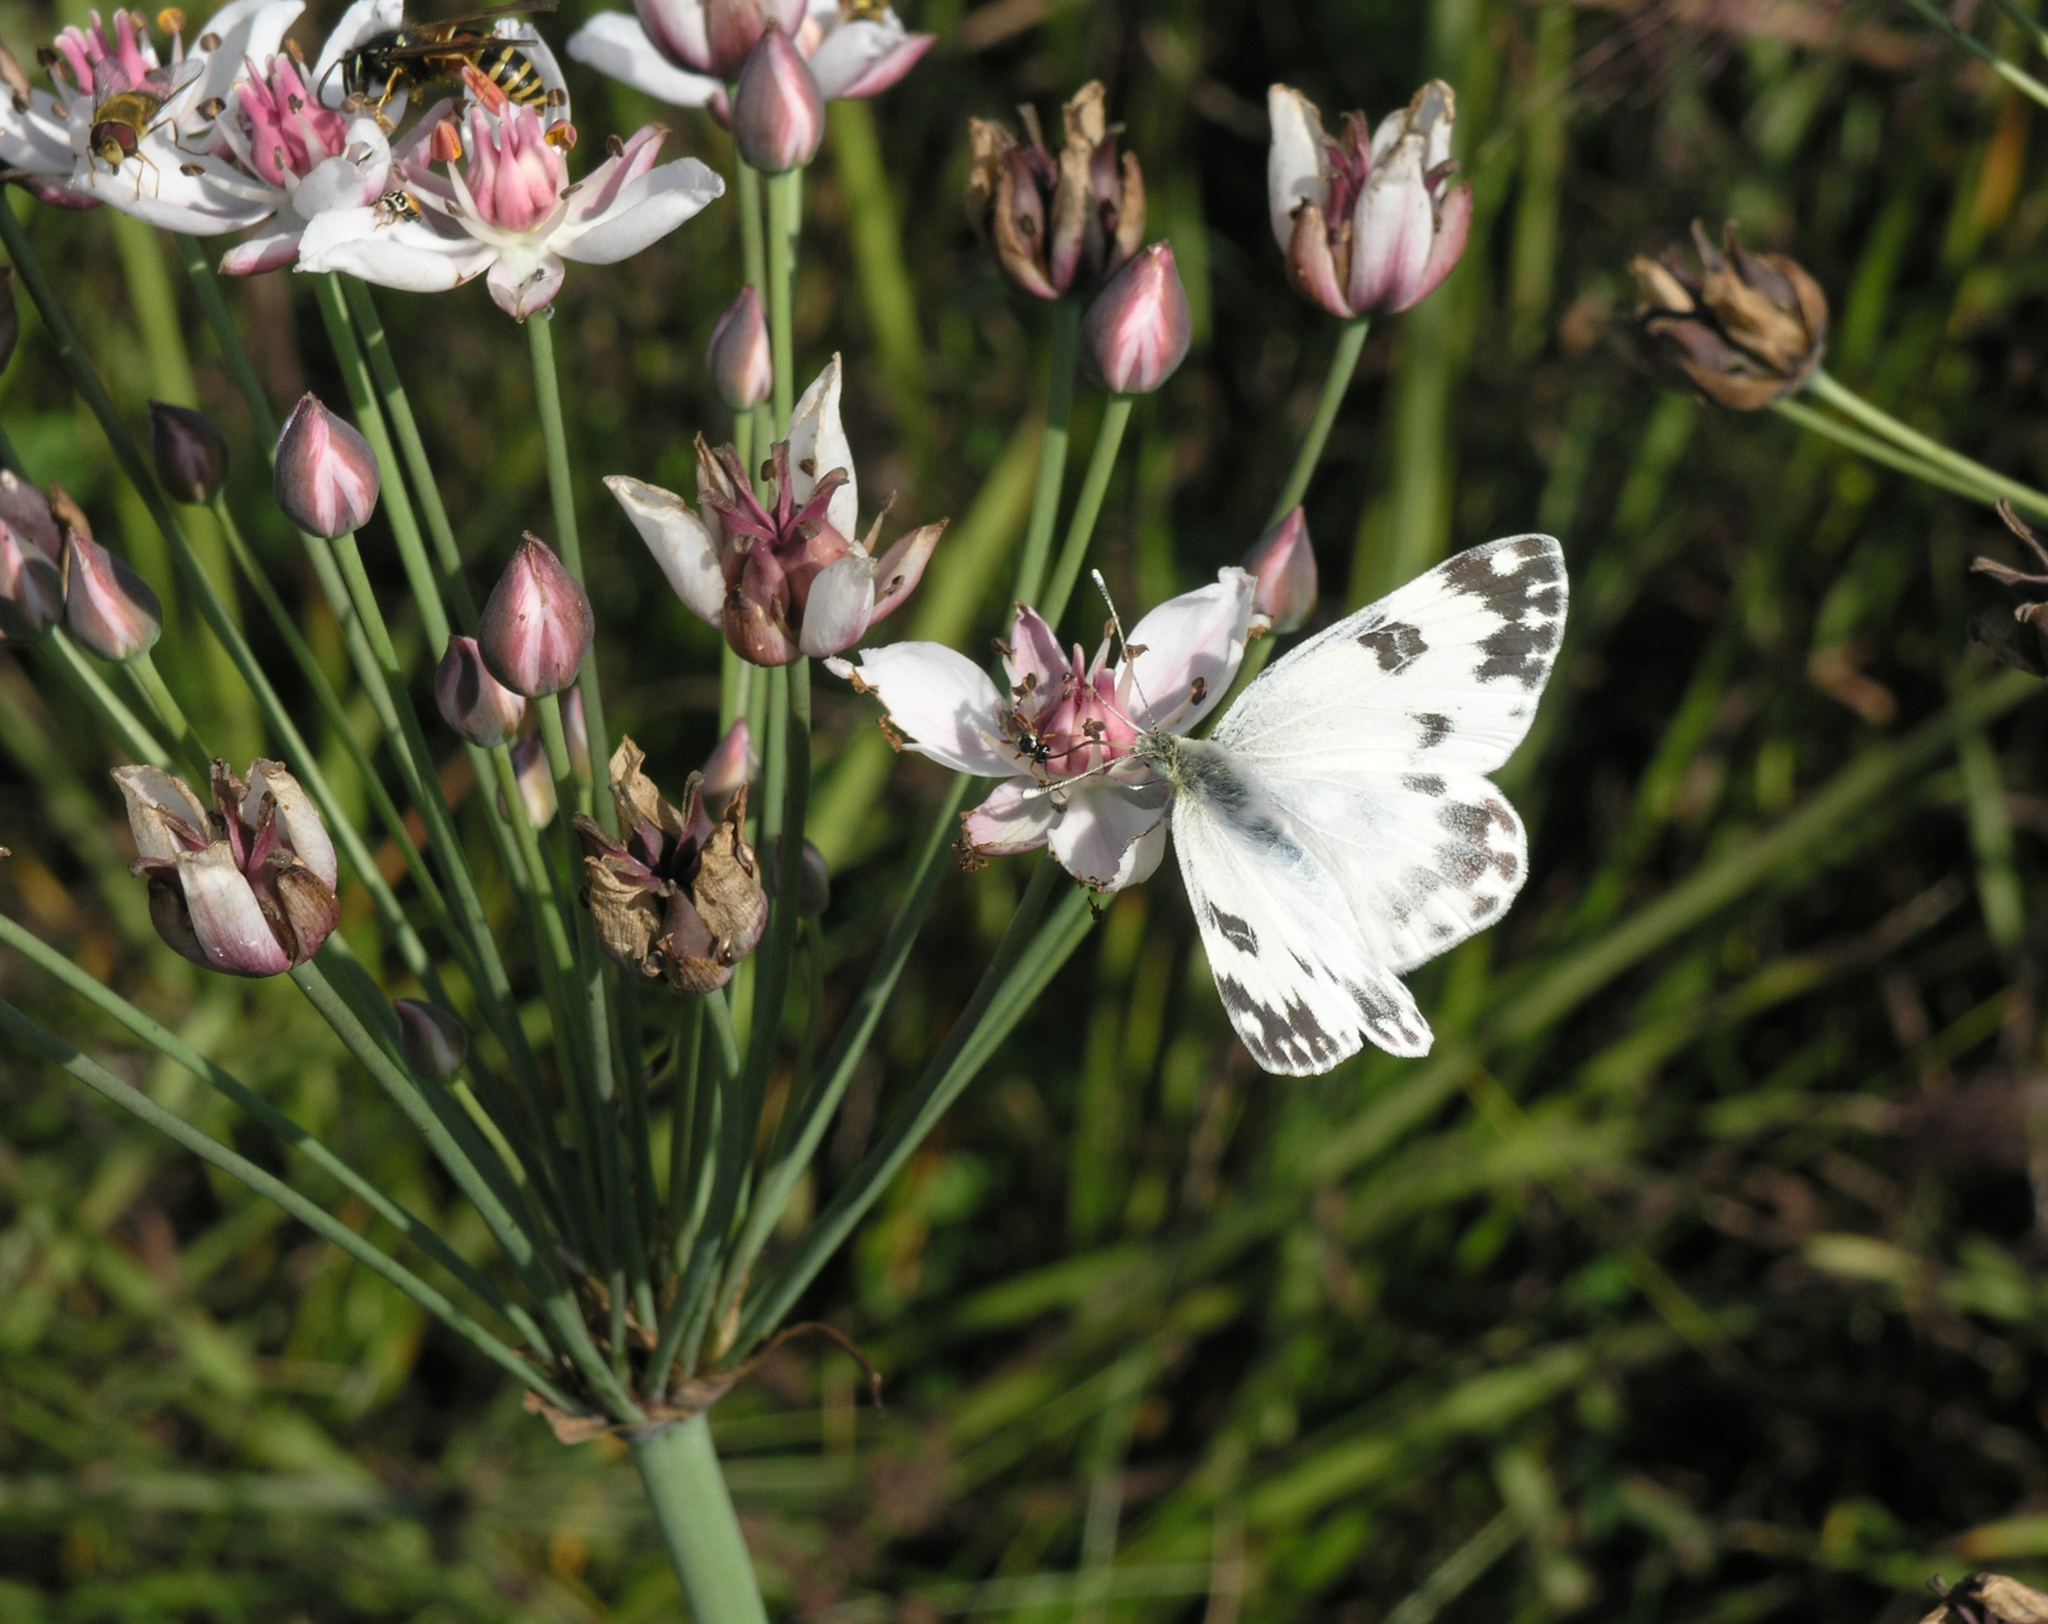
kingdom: Animalia
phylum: Arthropoda
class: Insecta
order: Lepidoptera
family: Pieridae
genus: Pontia
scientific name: Pontia edusa
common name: Eastern bath white
